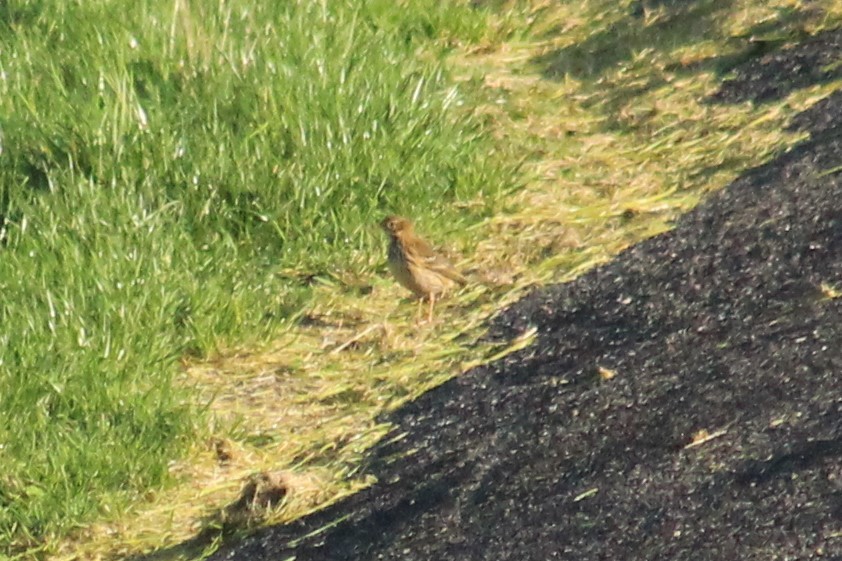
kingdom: Animalia
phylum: Chordata
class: Aves
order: Passeriformes
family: Motacillidae
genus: Anthus
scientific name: Anthus pratensis
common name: Meadow pipit
